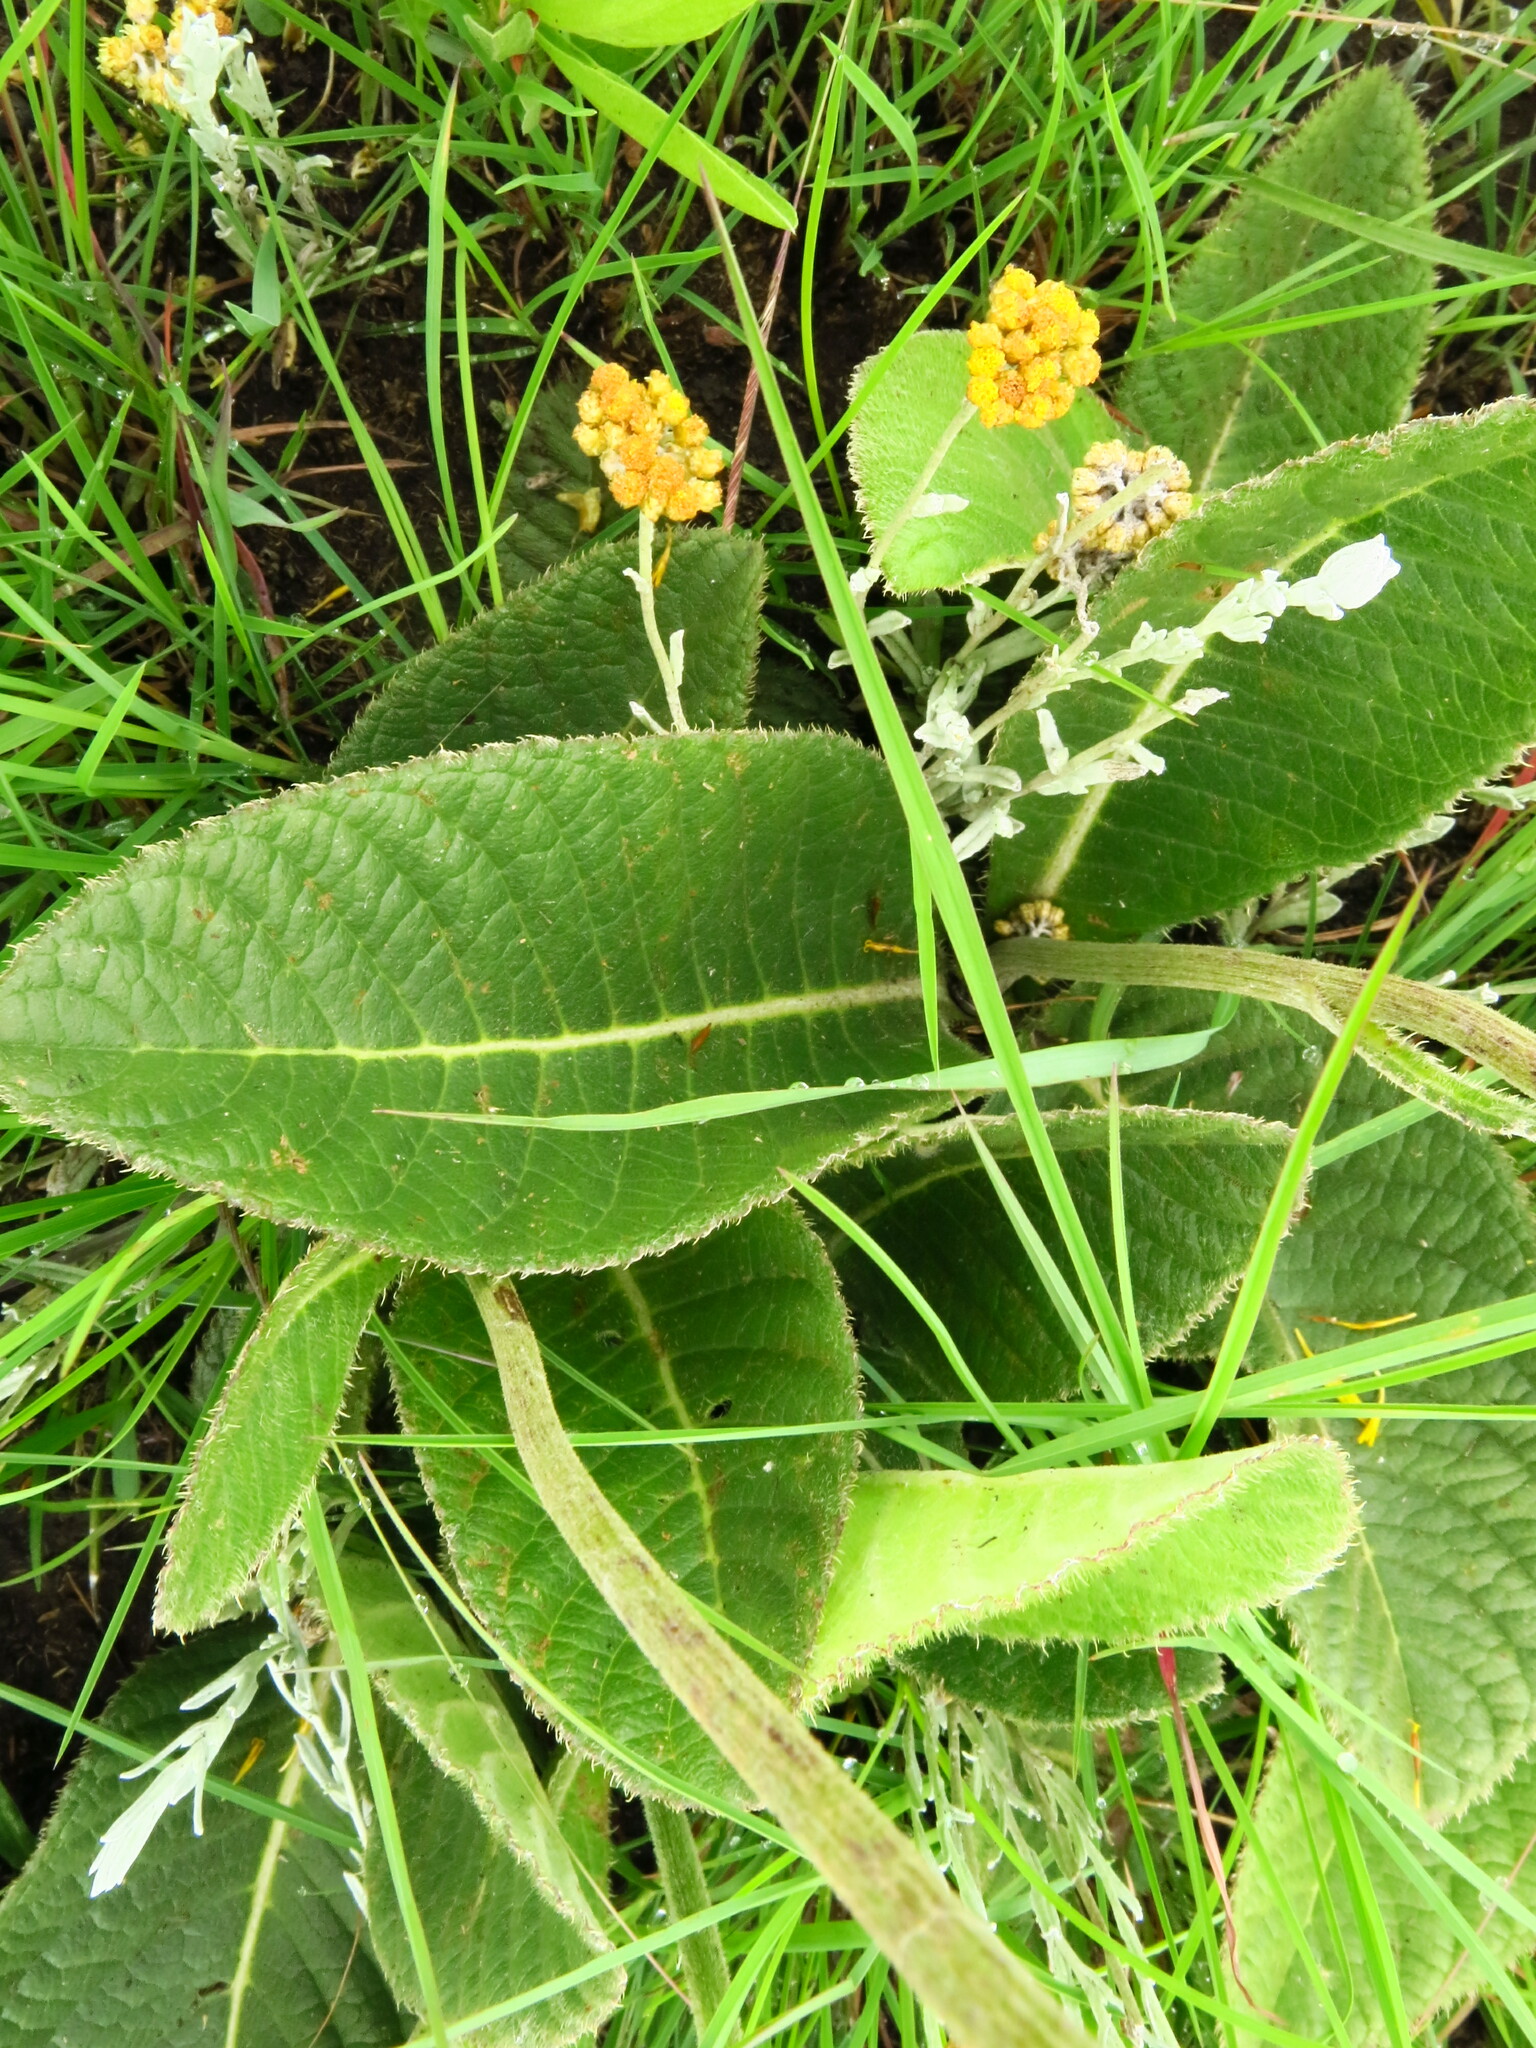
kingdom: Plantae
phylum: Tracheophyta
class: Magnoliopsida
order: Asterales
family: Asteraceae
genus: Berkheya
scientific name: Berkheya setifera
